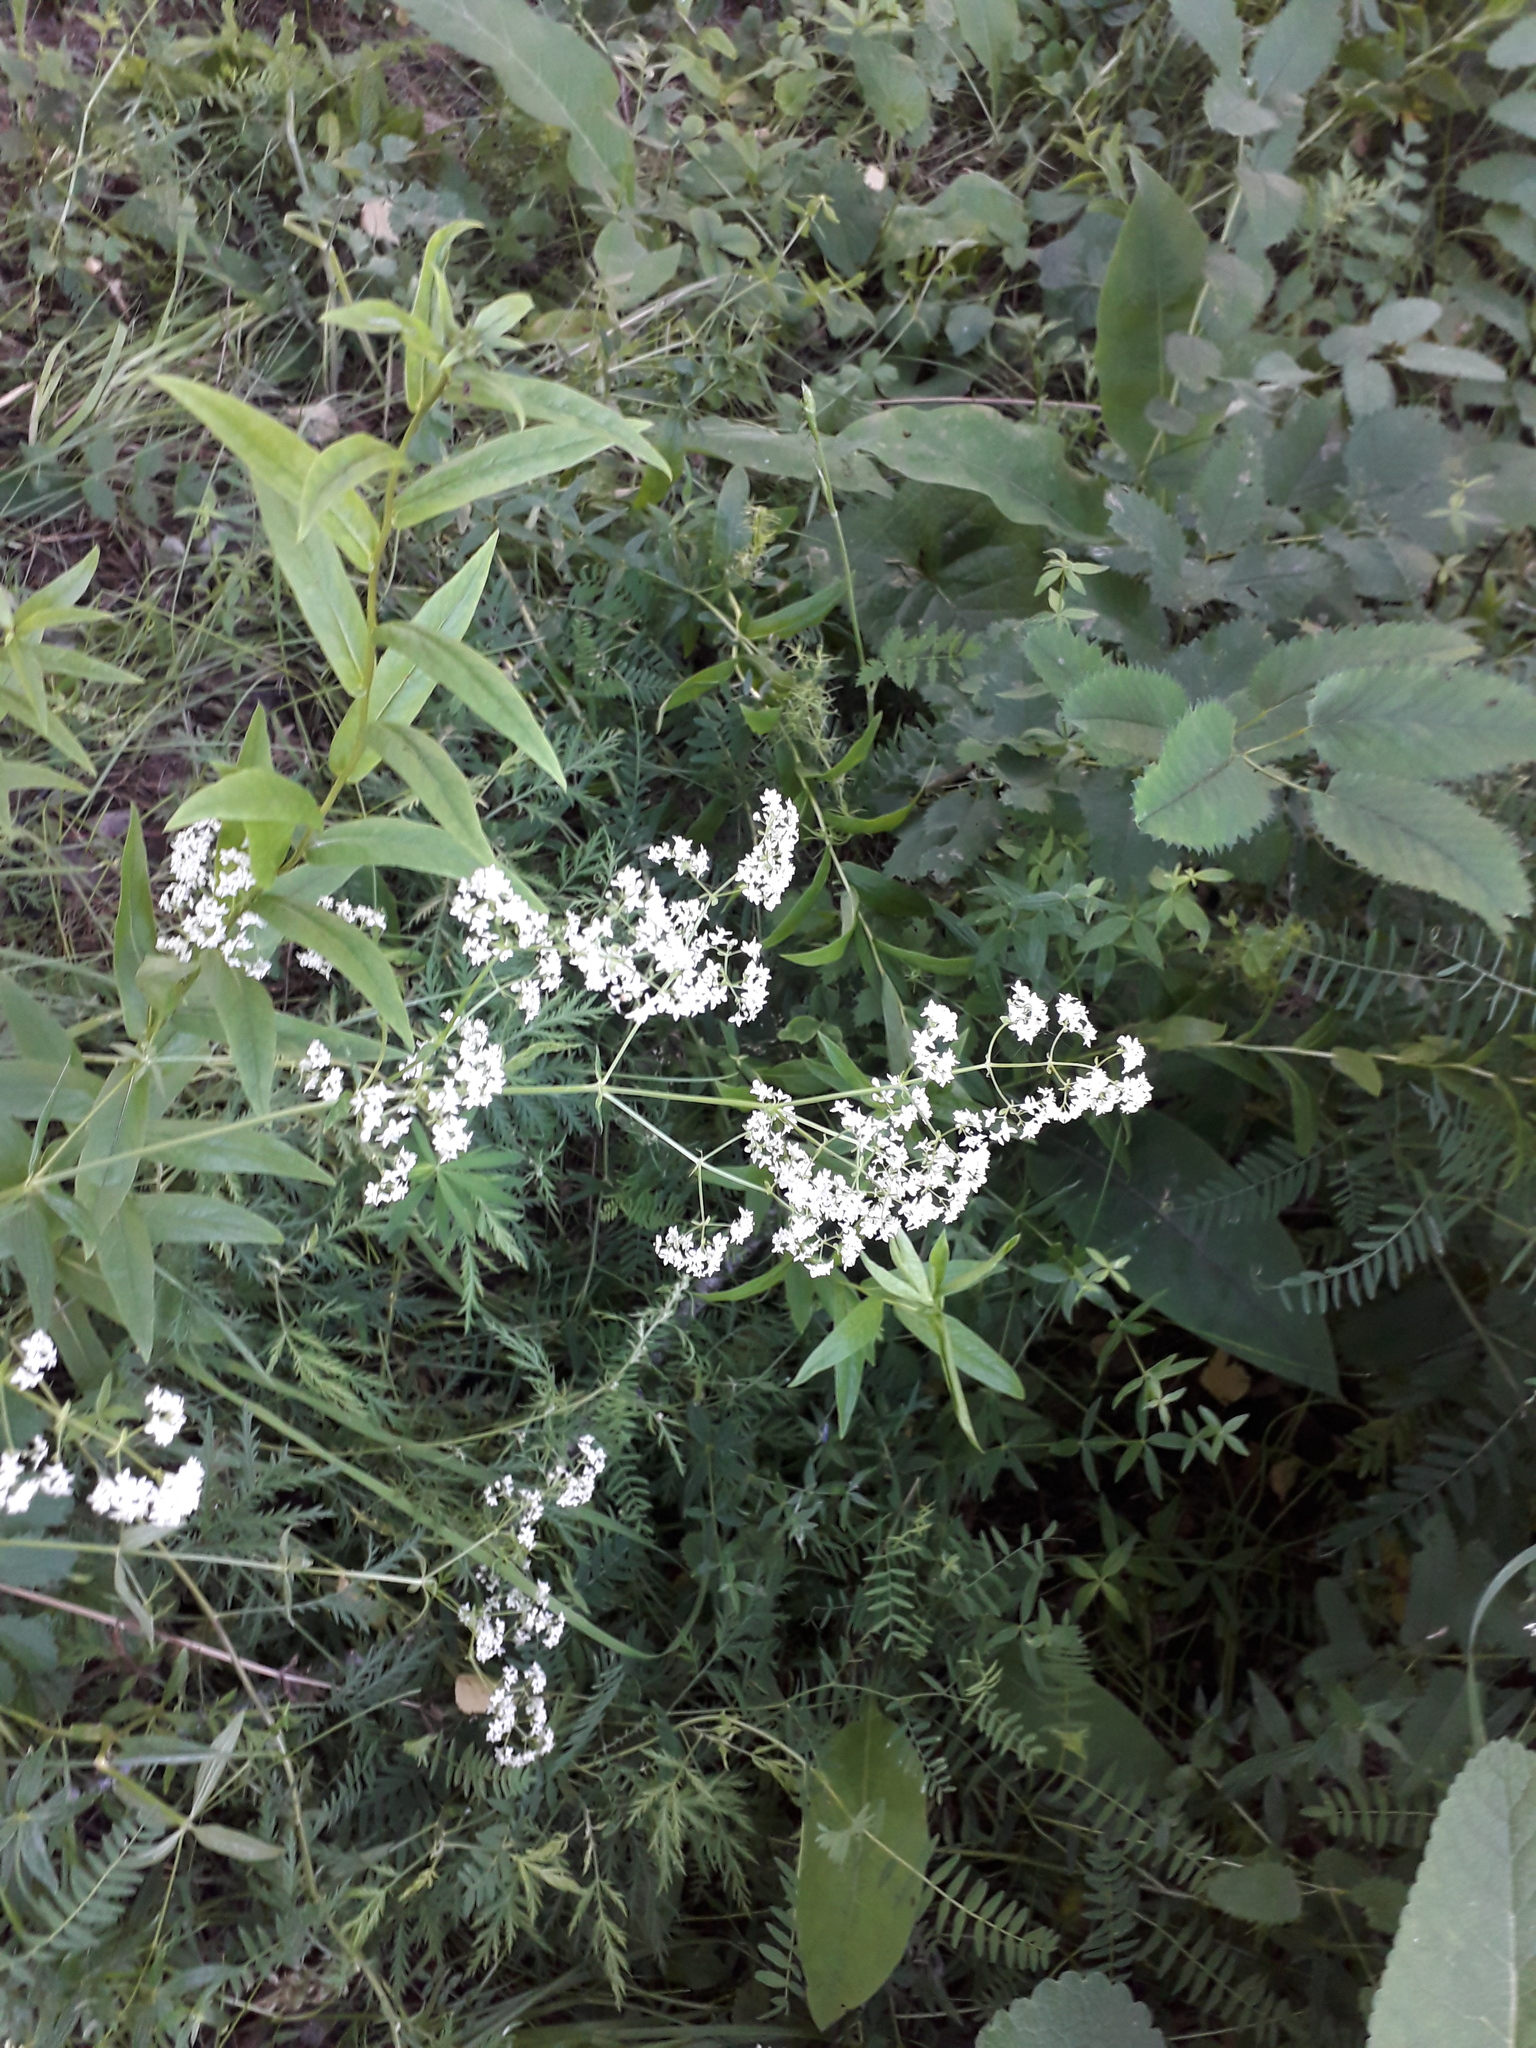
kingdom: Plantae
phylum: Tracheophyta
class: Magnoliopsida
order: Gentianales
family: Rubiaceae
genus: Galium
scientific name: Galium boreale
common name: Northern bedstraw
